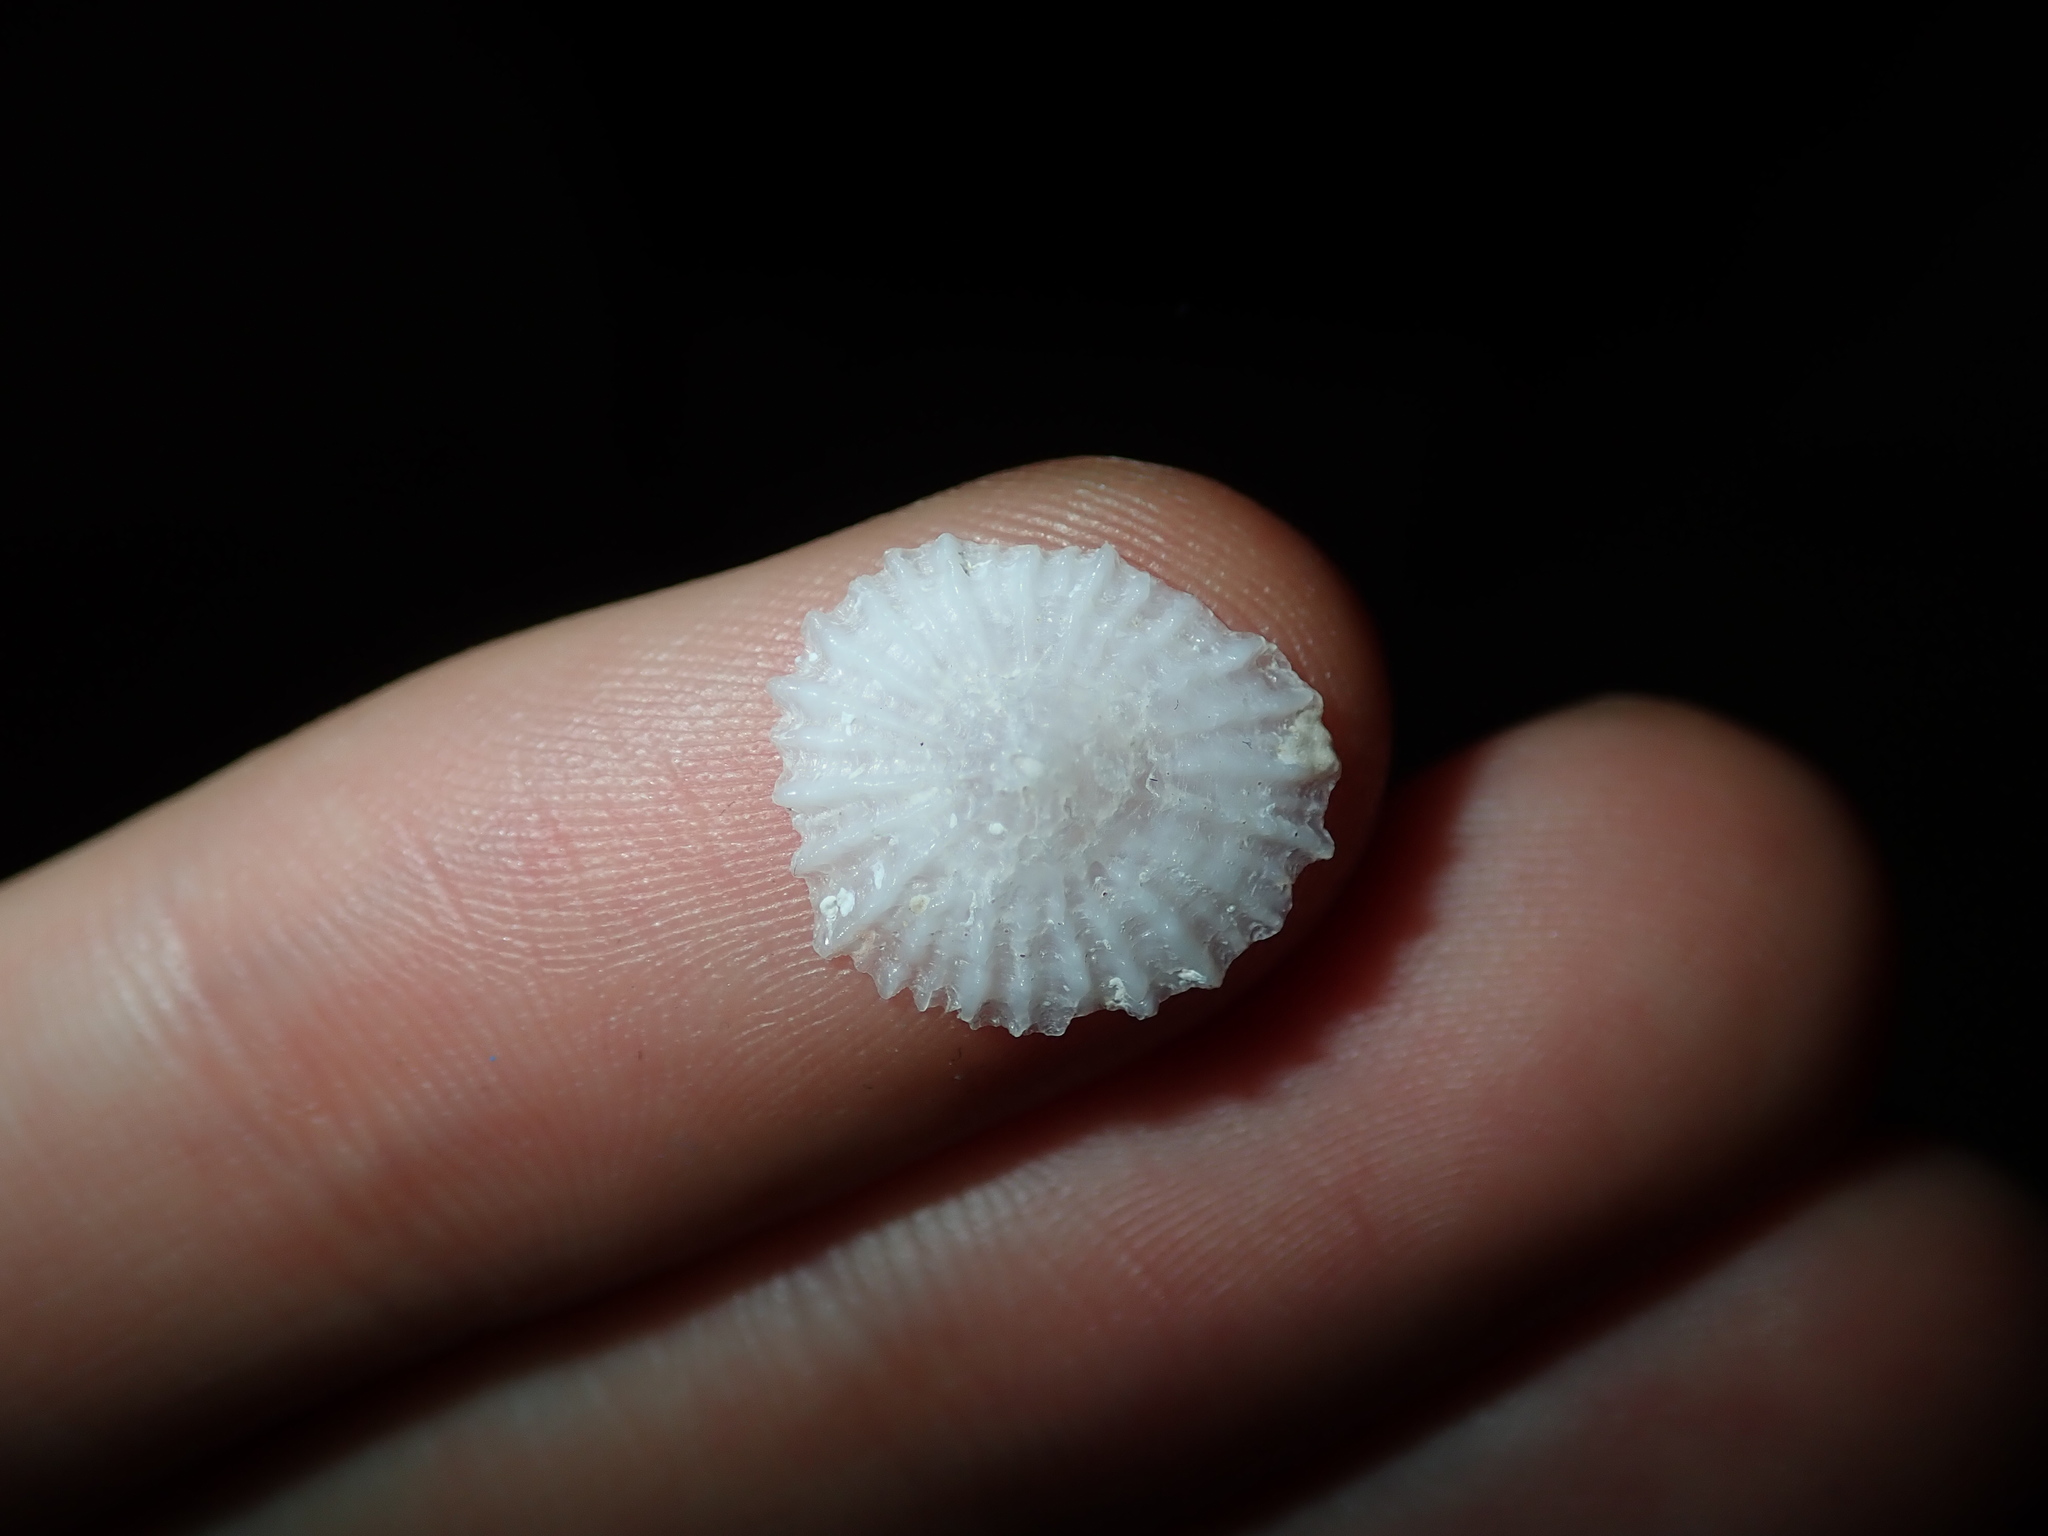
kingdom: Animalia
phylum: Mollusca
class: Gastropoda
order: Ellobiida
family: Trimusculidae
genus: Trimusculus
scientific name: Trimusculus conicus
